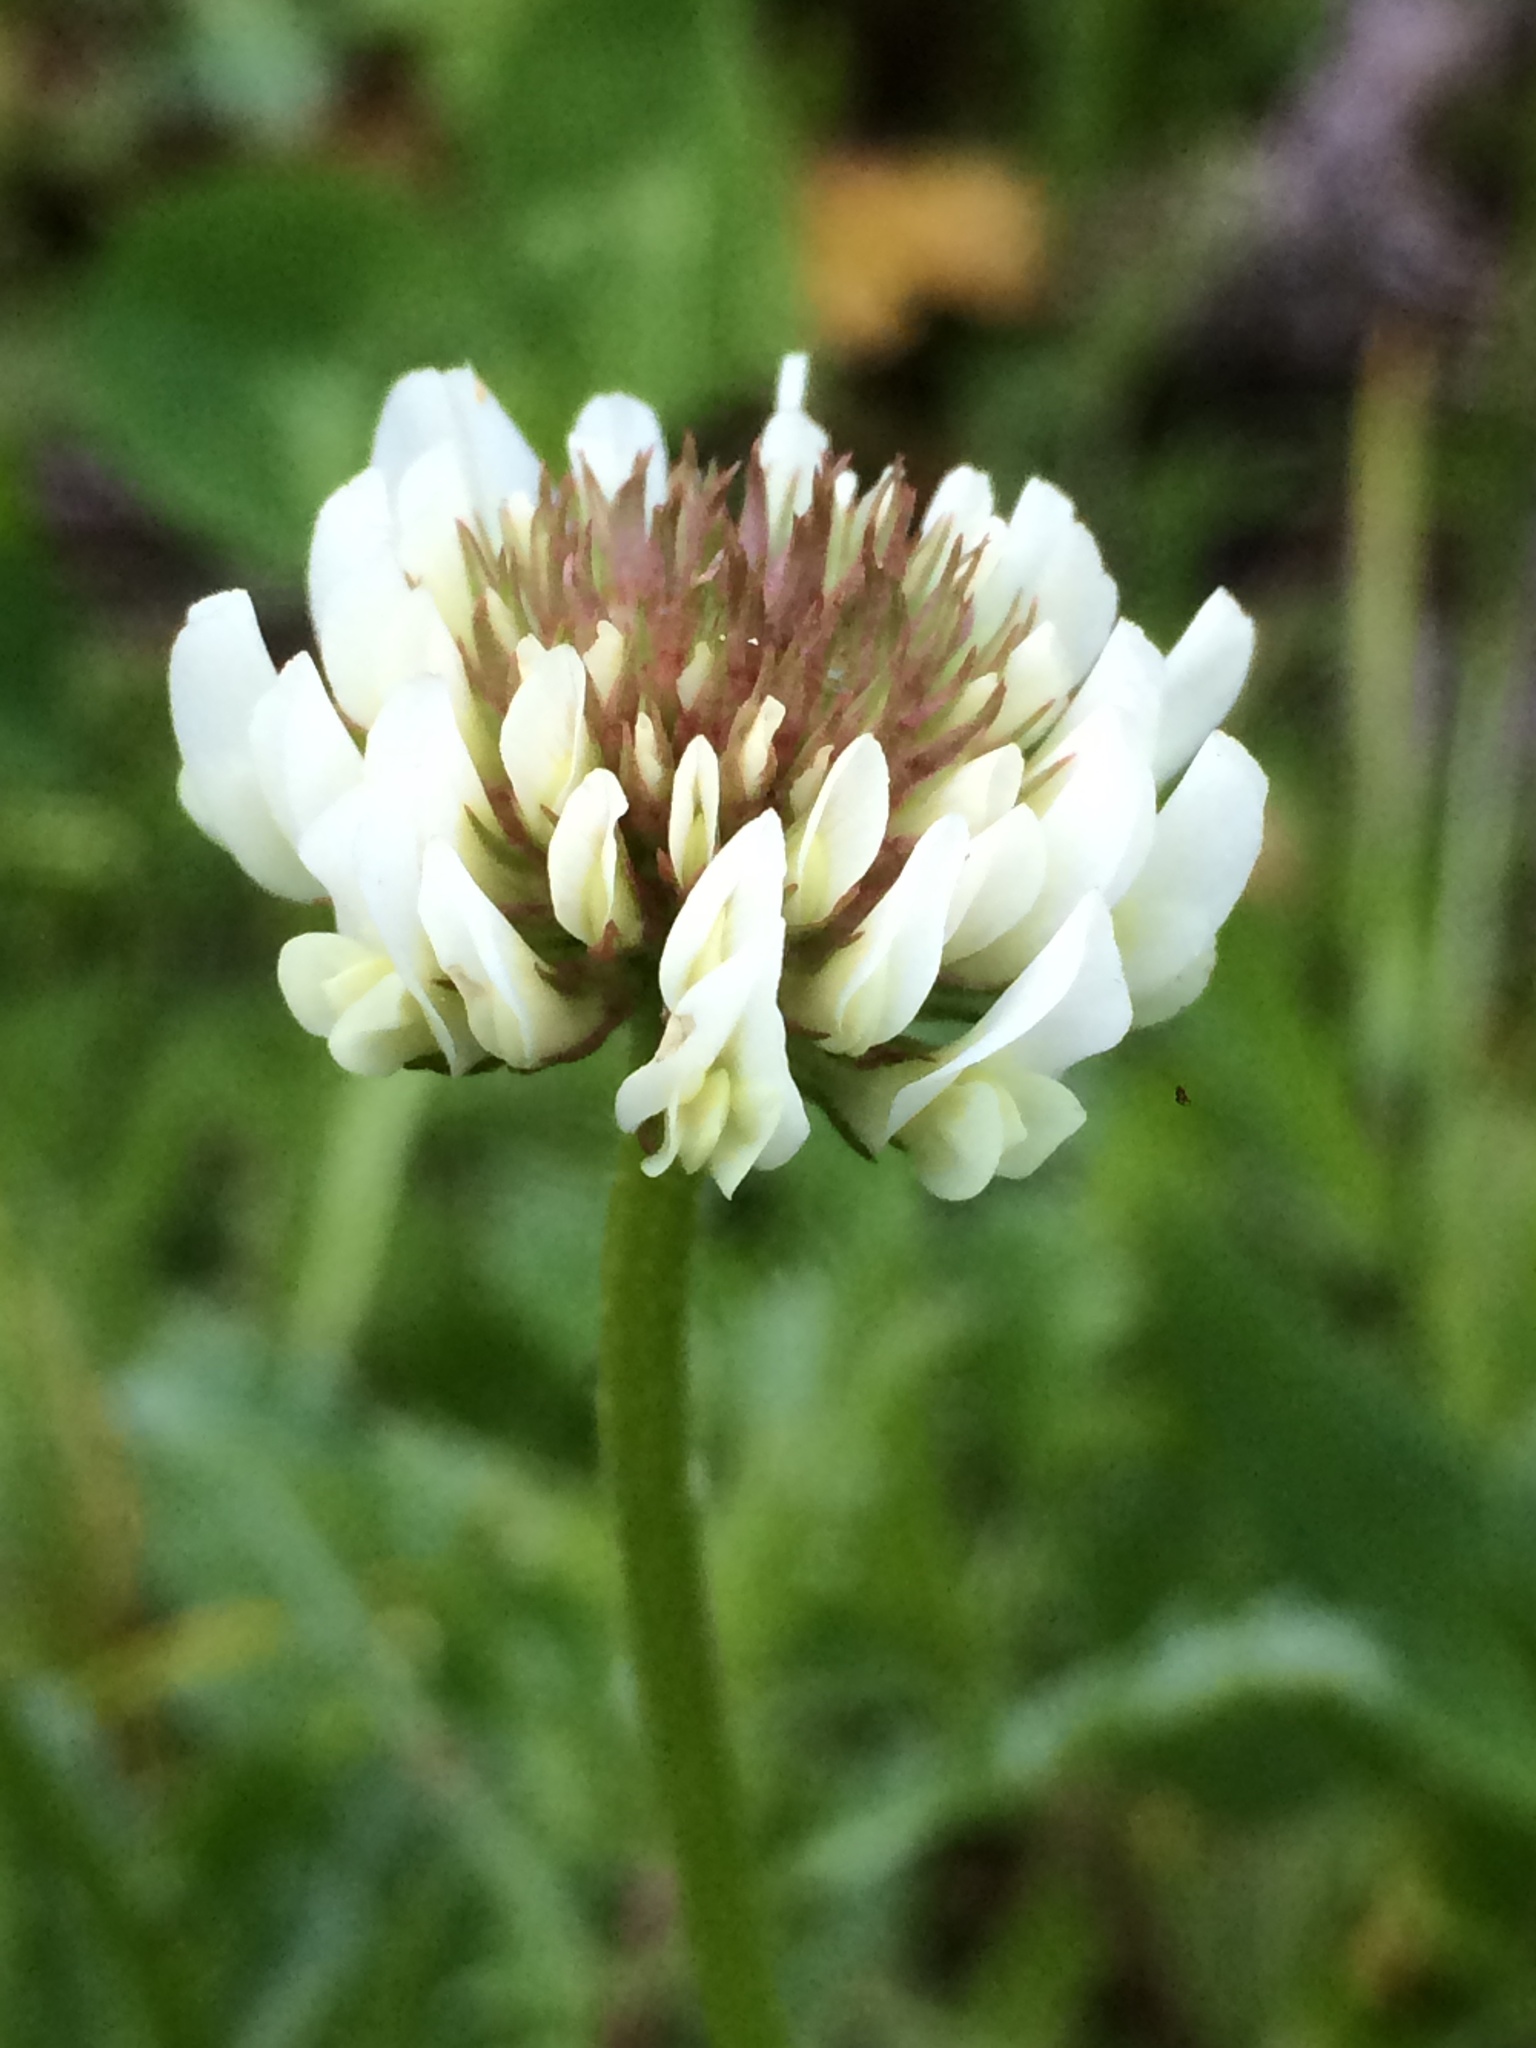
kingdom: Plantae
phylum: Tracheophyta
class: Magnoliopsida
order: Fabales
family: Fabaceae
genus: Trifolium
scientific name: Trifolium repens
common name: White clover
